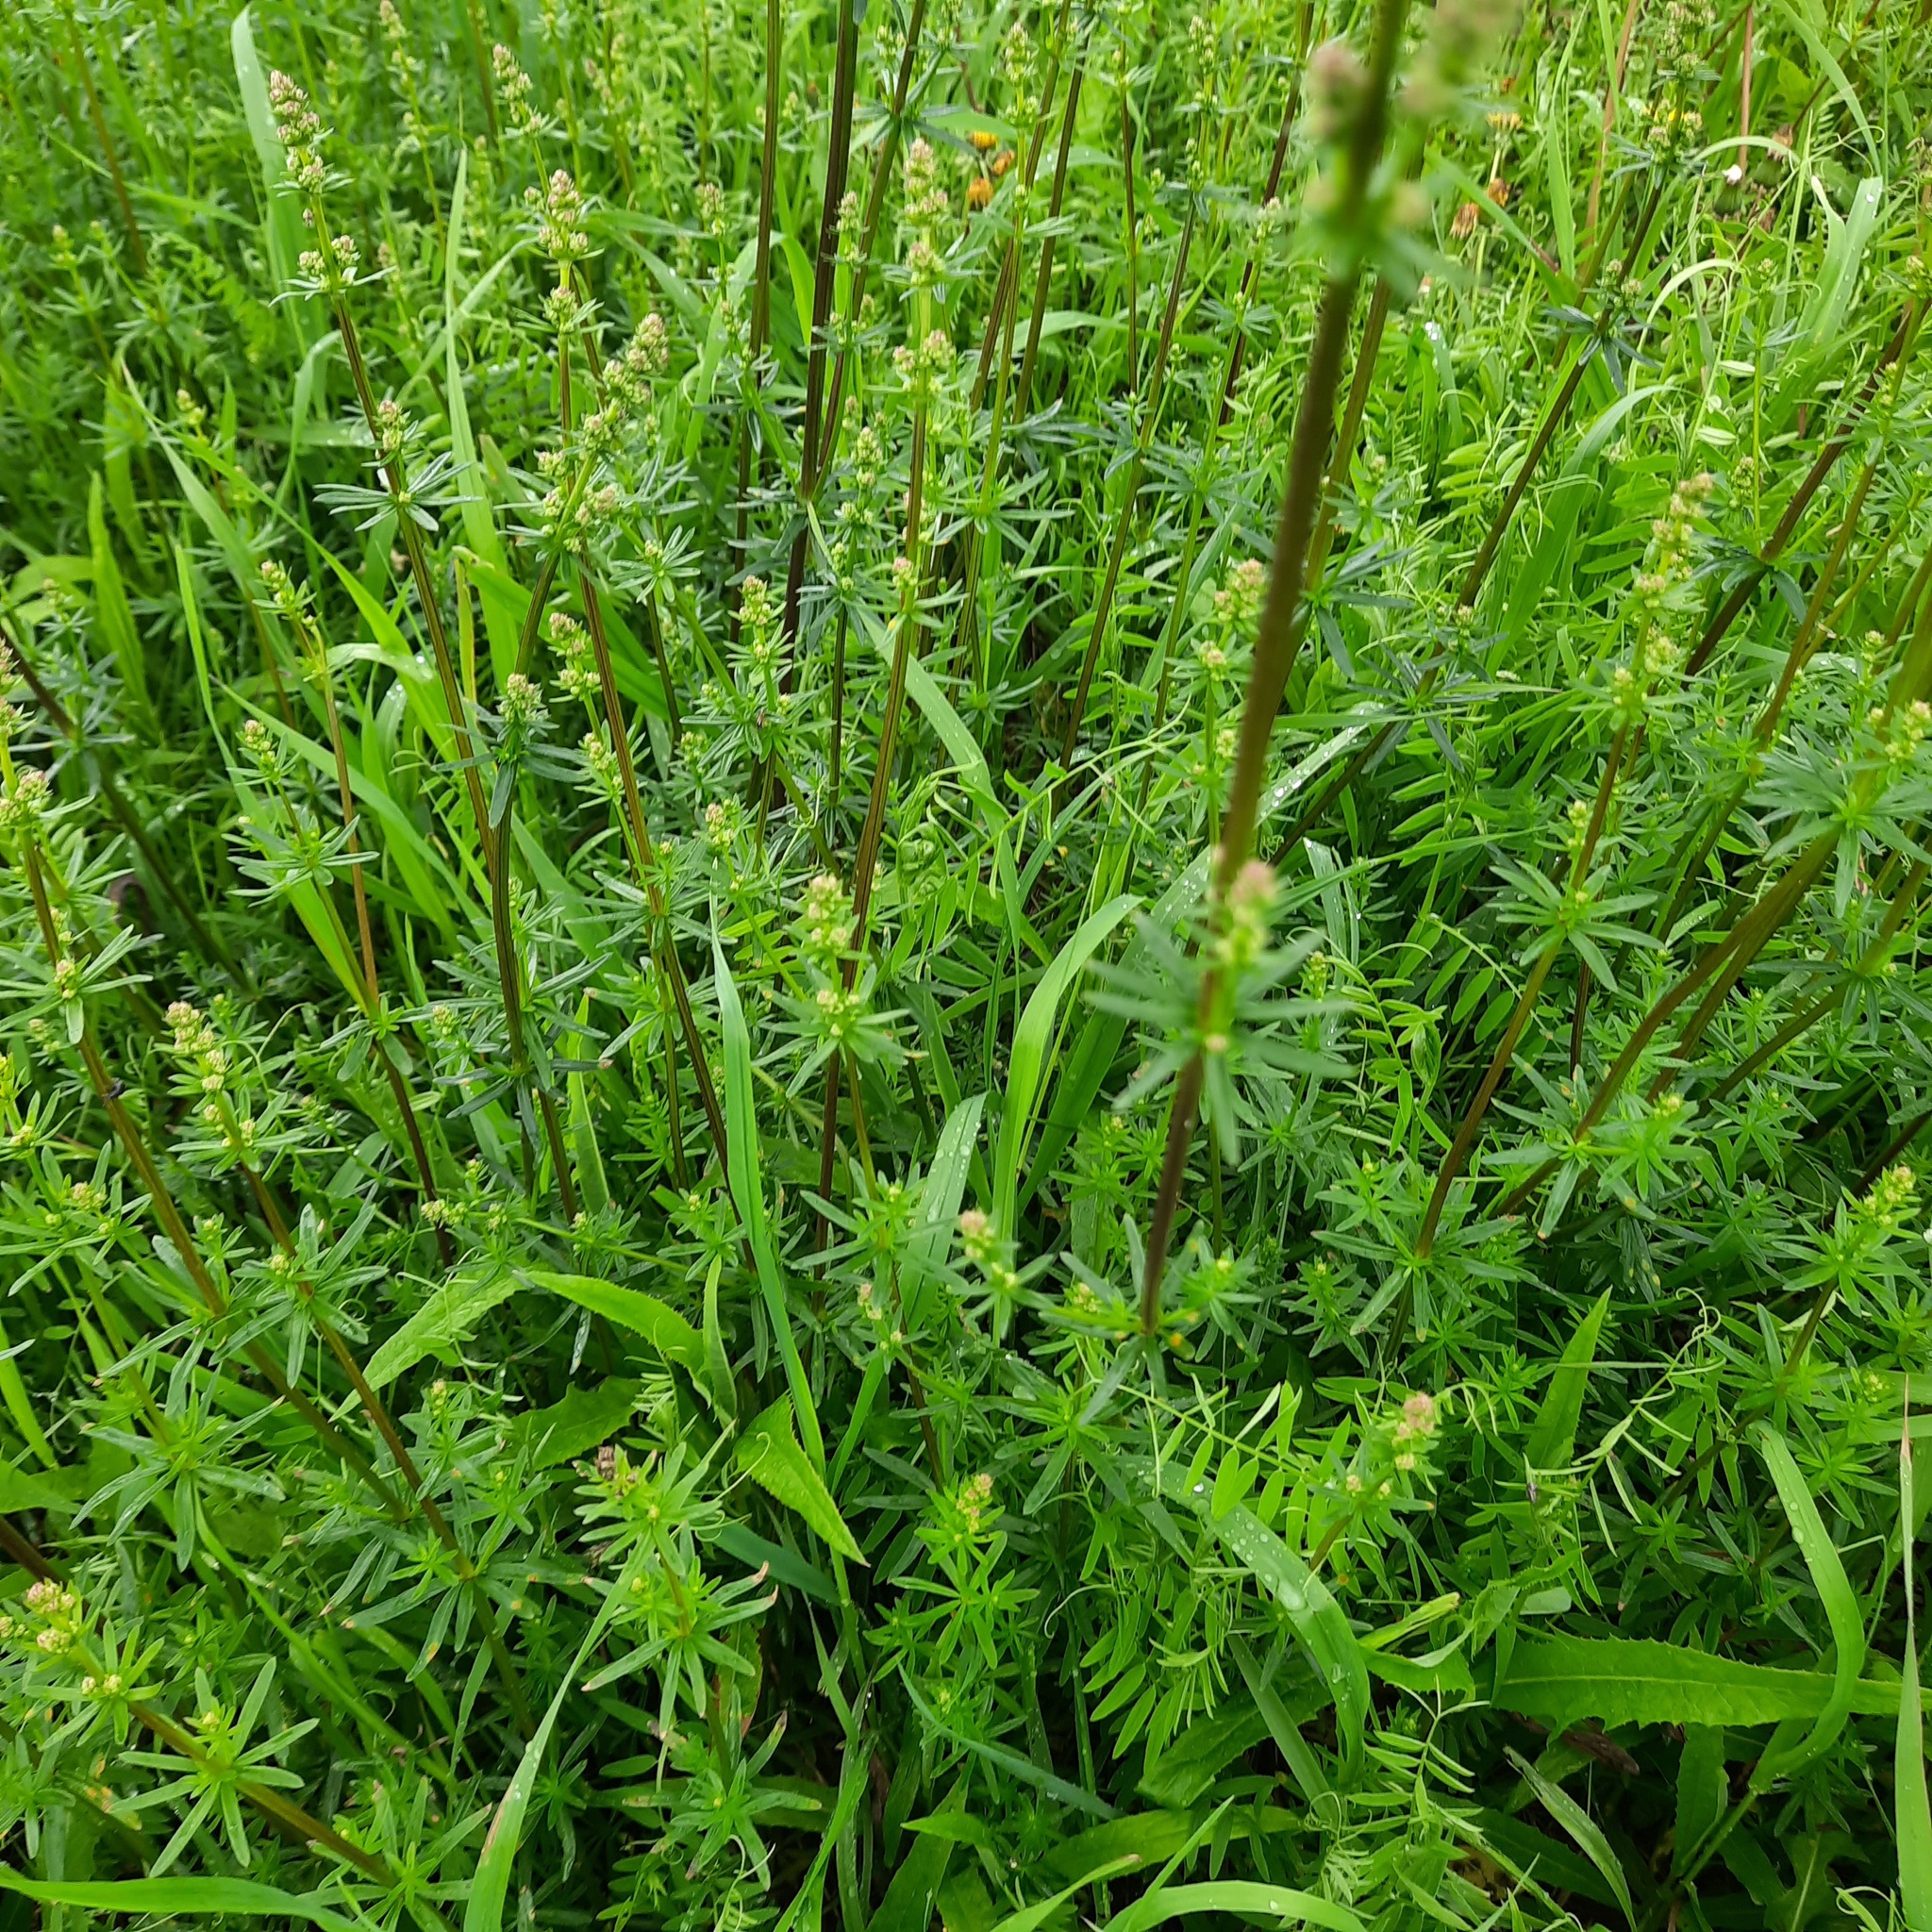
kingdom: Plantae
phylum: Tracheophyta
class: Magnoliopsida
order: Gentianales
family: Rubiaceae
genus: Galium
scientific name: Galium mollugo
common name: Hedge bedstraw
